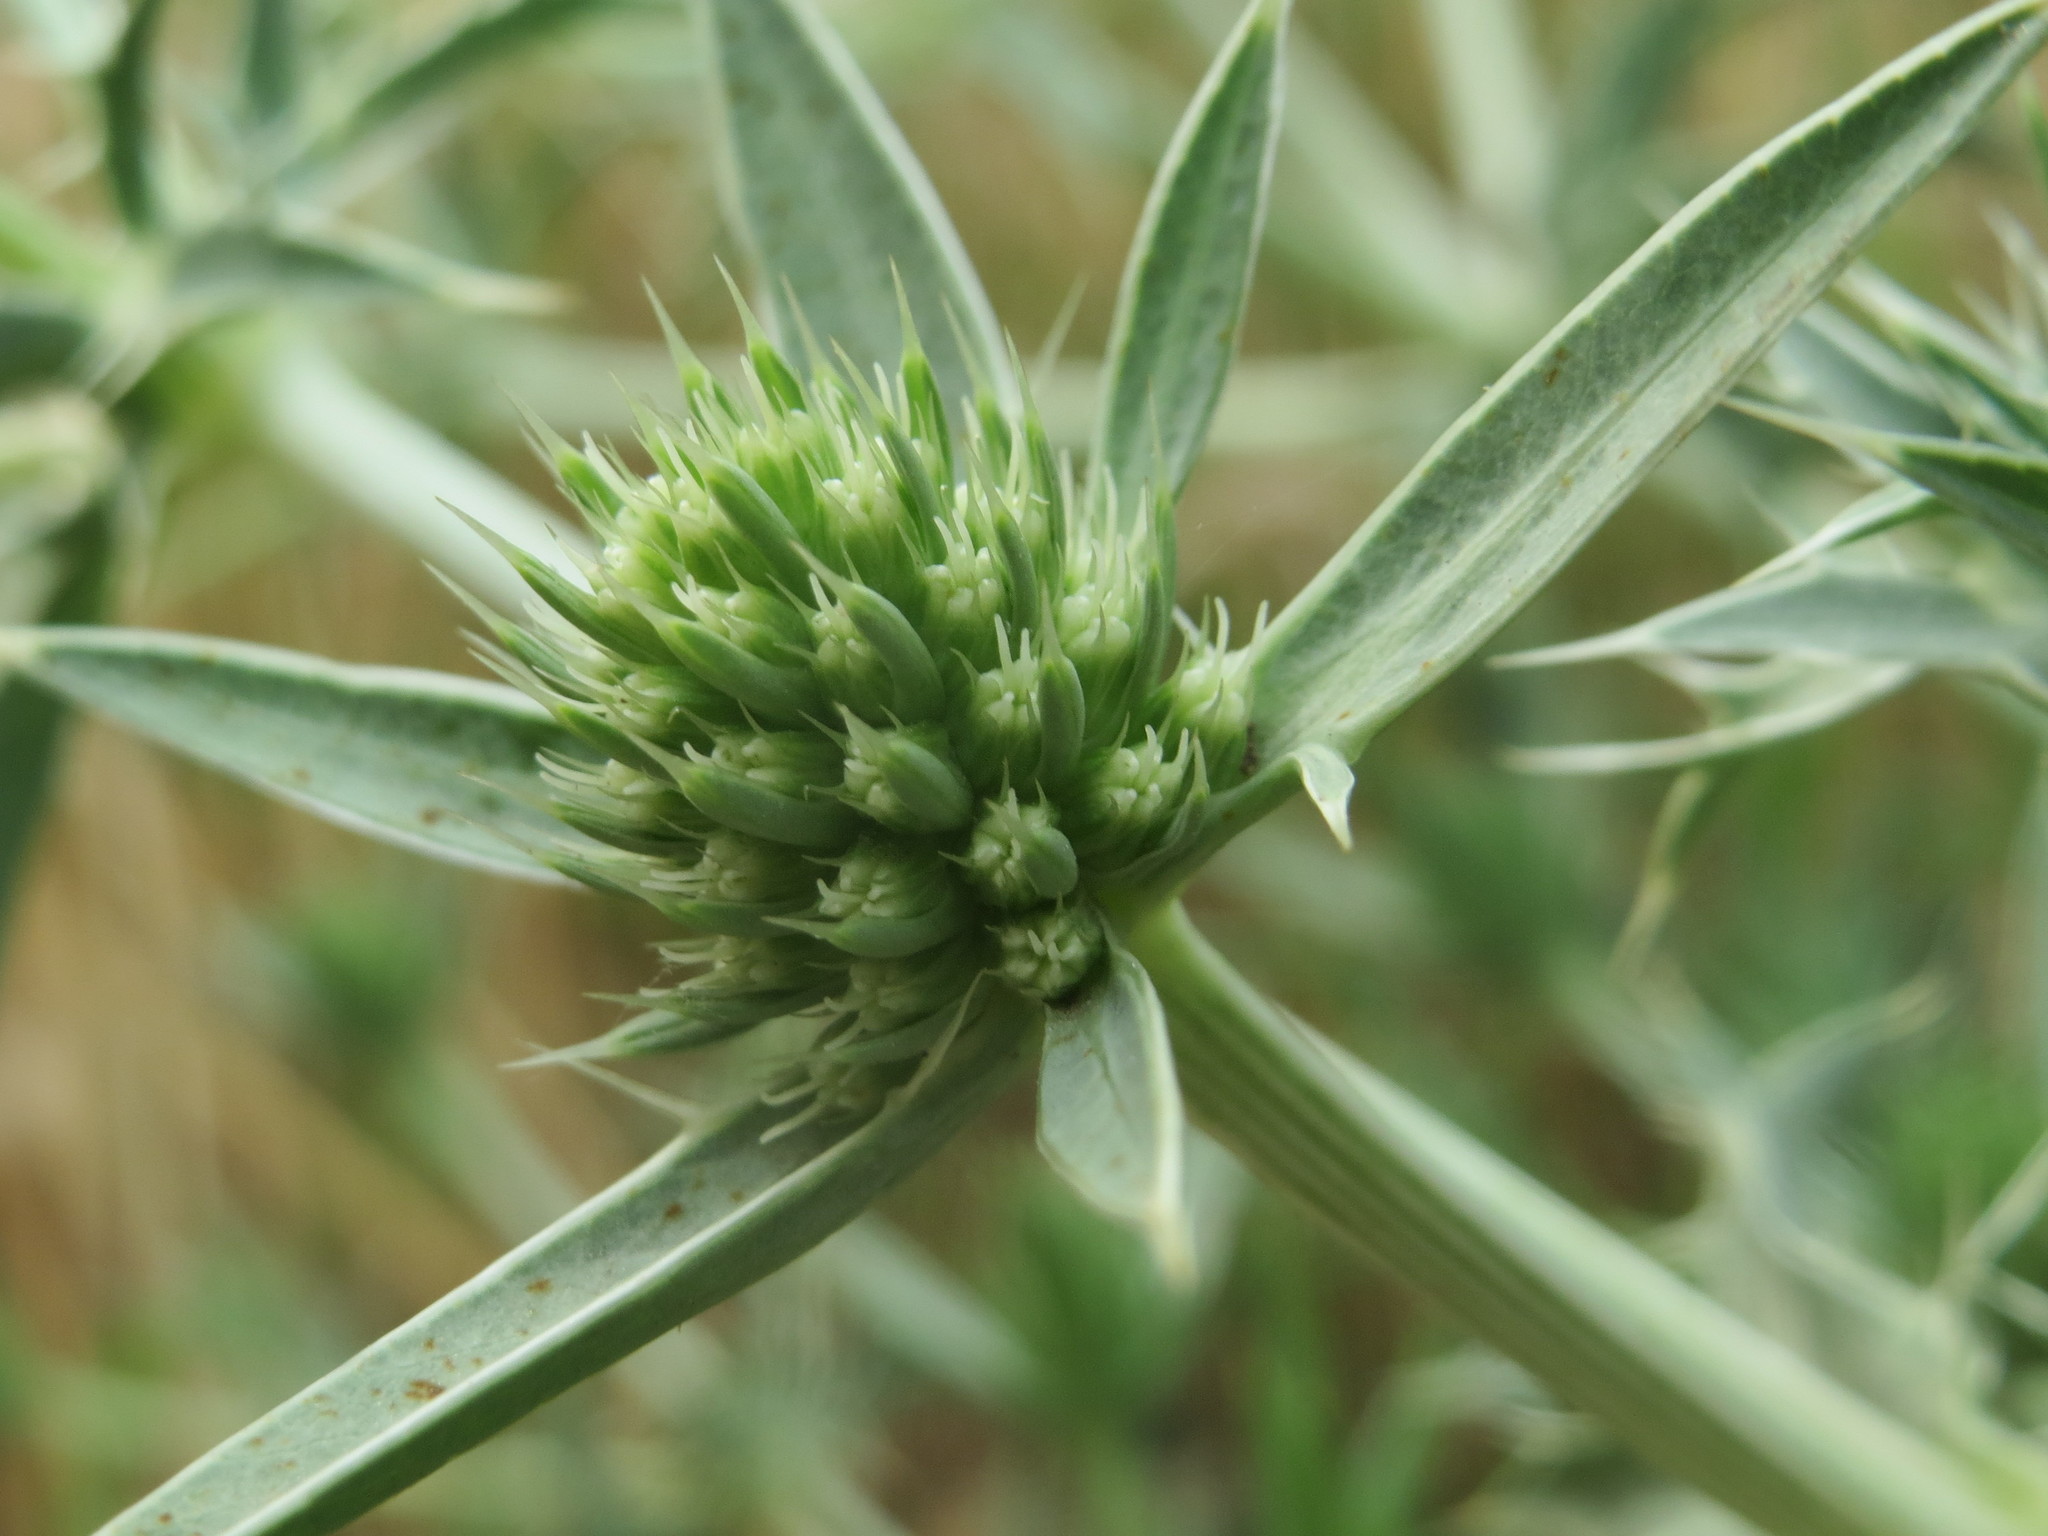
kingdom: Plantae
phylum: Tracheophyta
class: Magnoliopsida
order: Apiales
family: Apiaceae
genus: Eryngium
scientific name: Eryngium campestre
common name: Field eryngo
